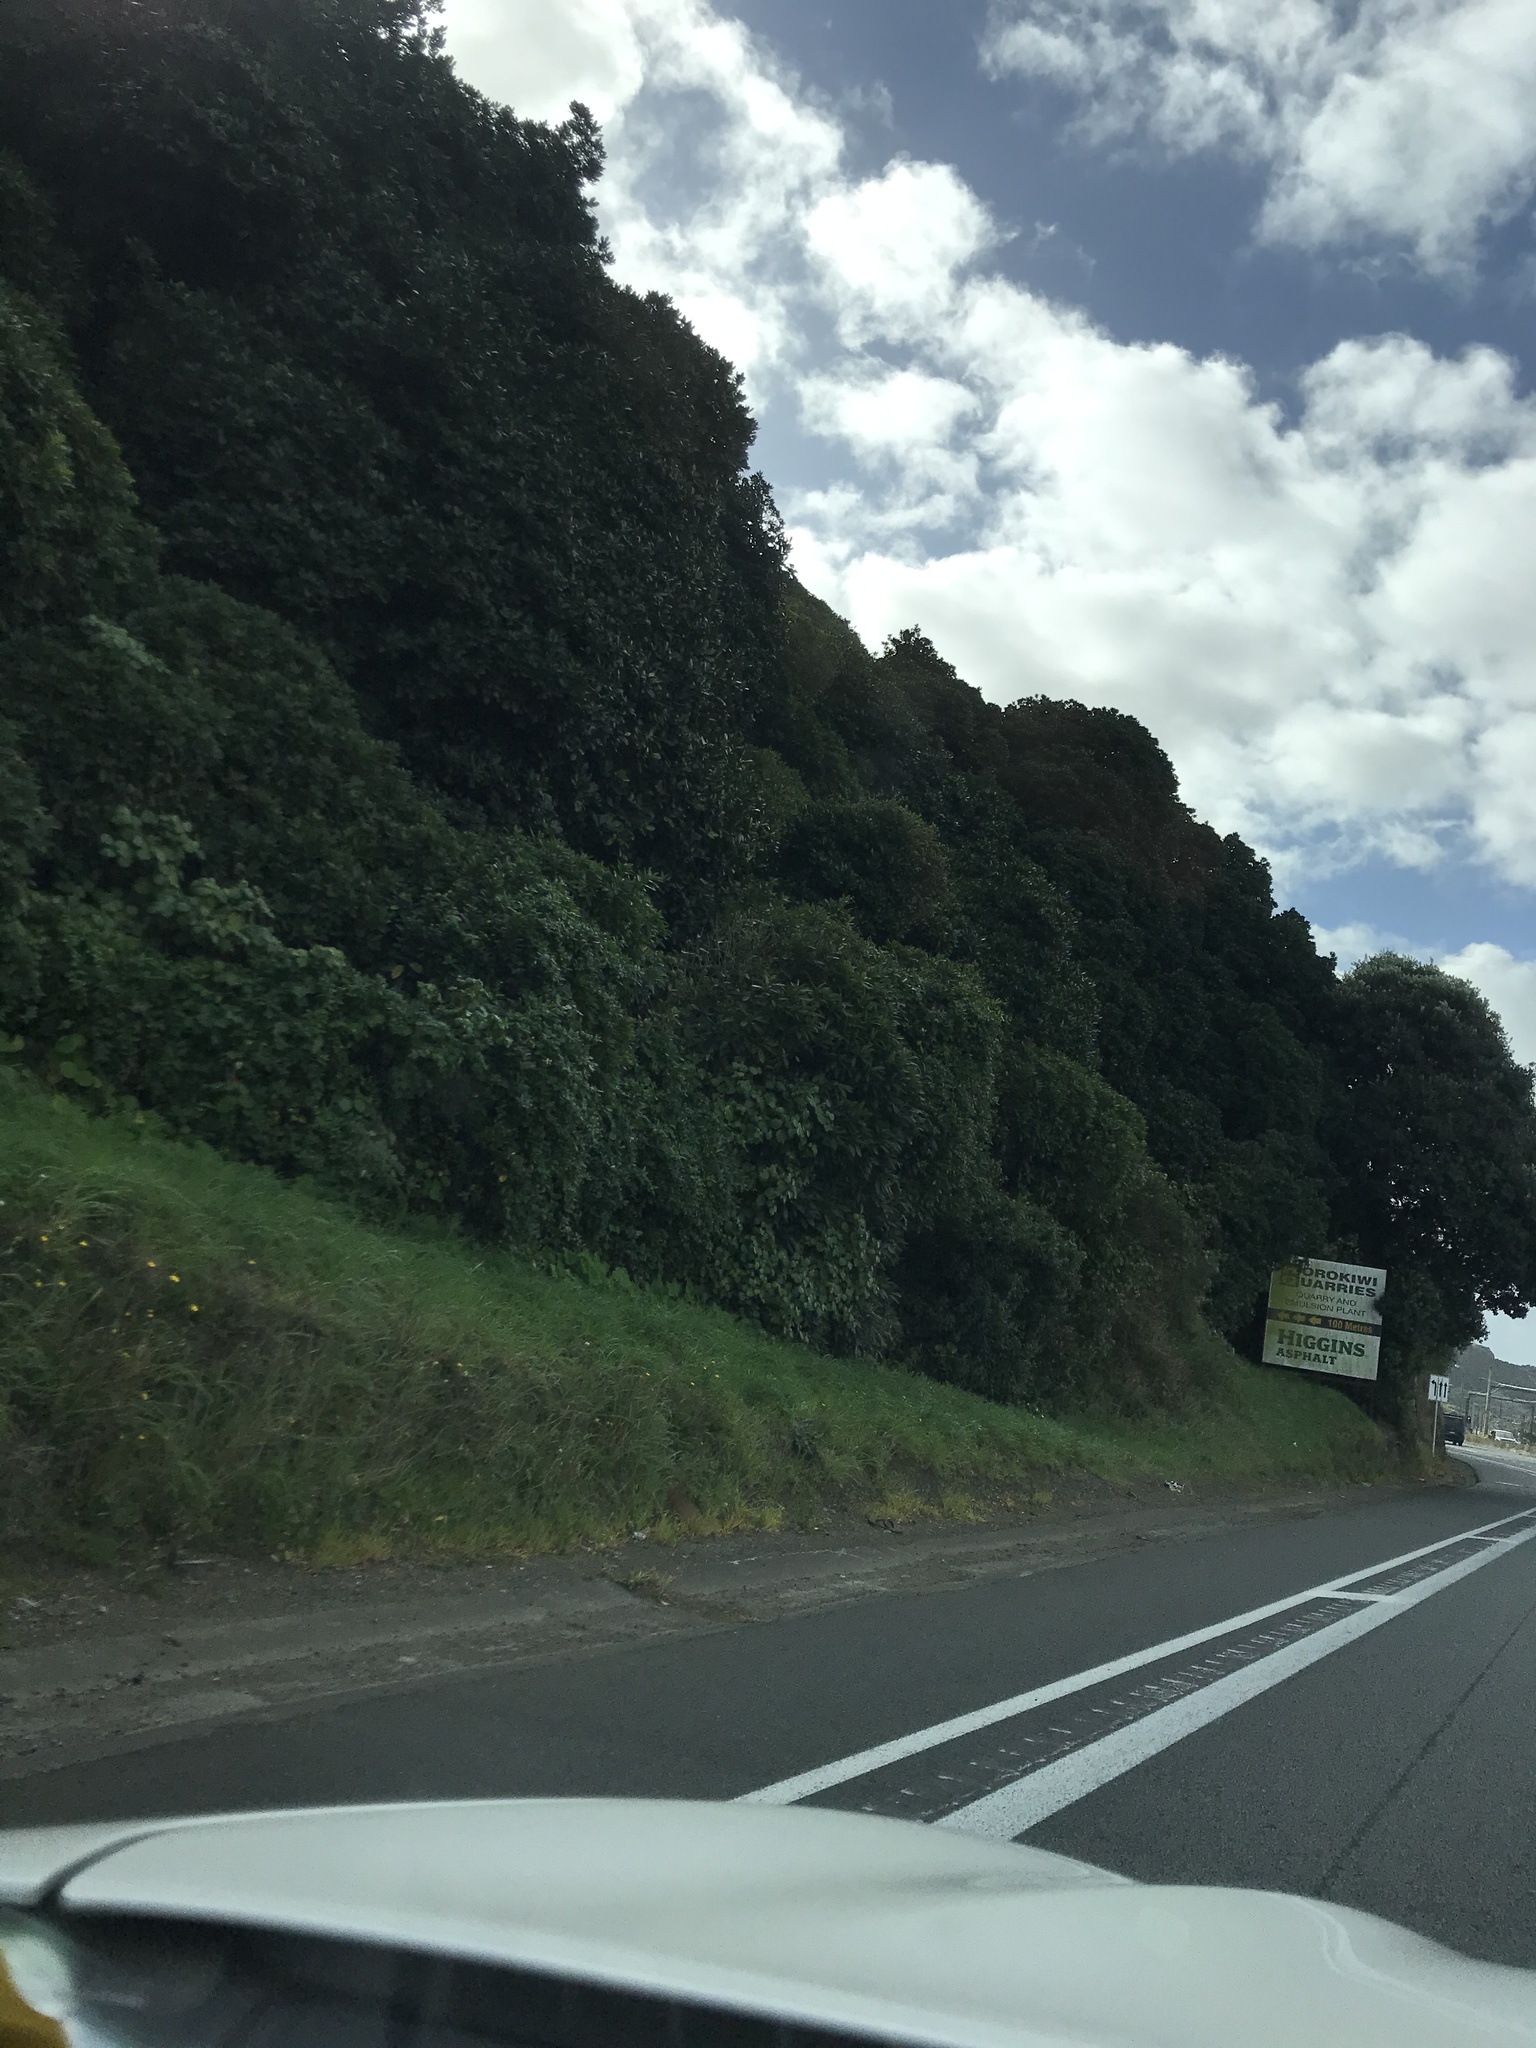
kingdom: Plantae
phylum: Tracheophyta
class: Magnoliopsida
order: Malpighiales
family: Violaceae
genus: Melicytus
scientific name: Melicytus ramiflorus
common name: Mahoe
